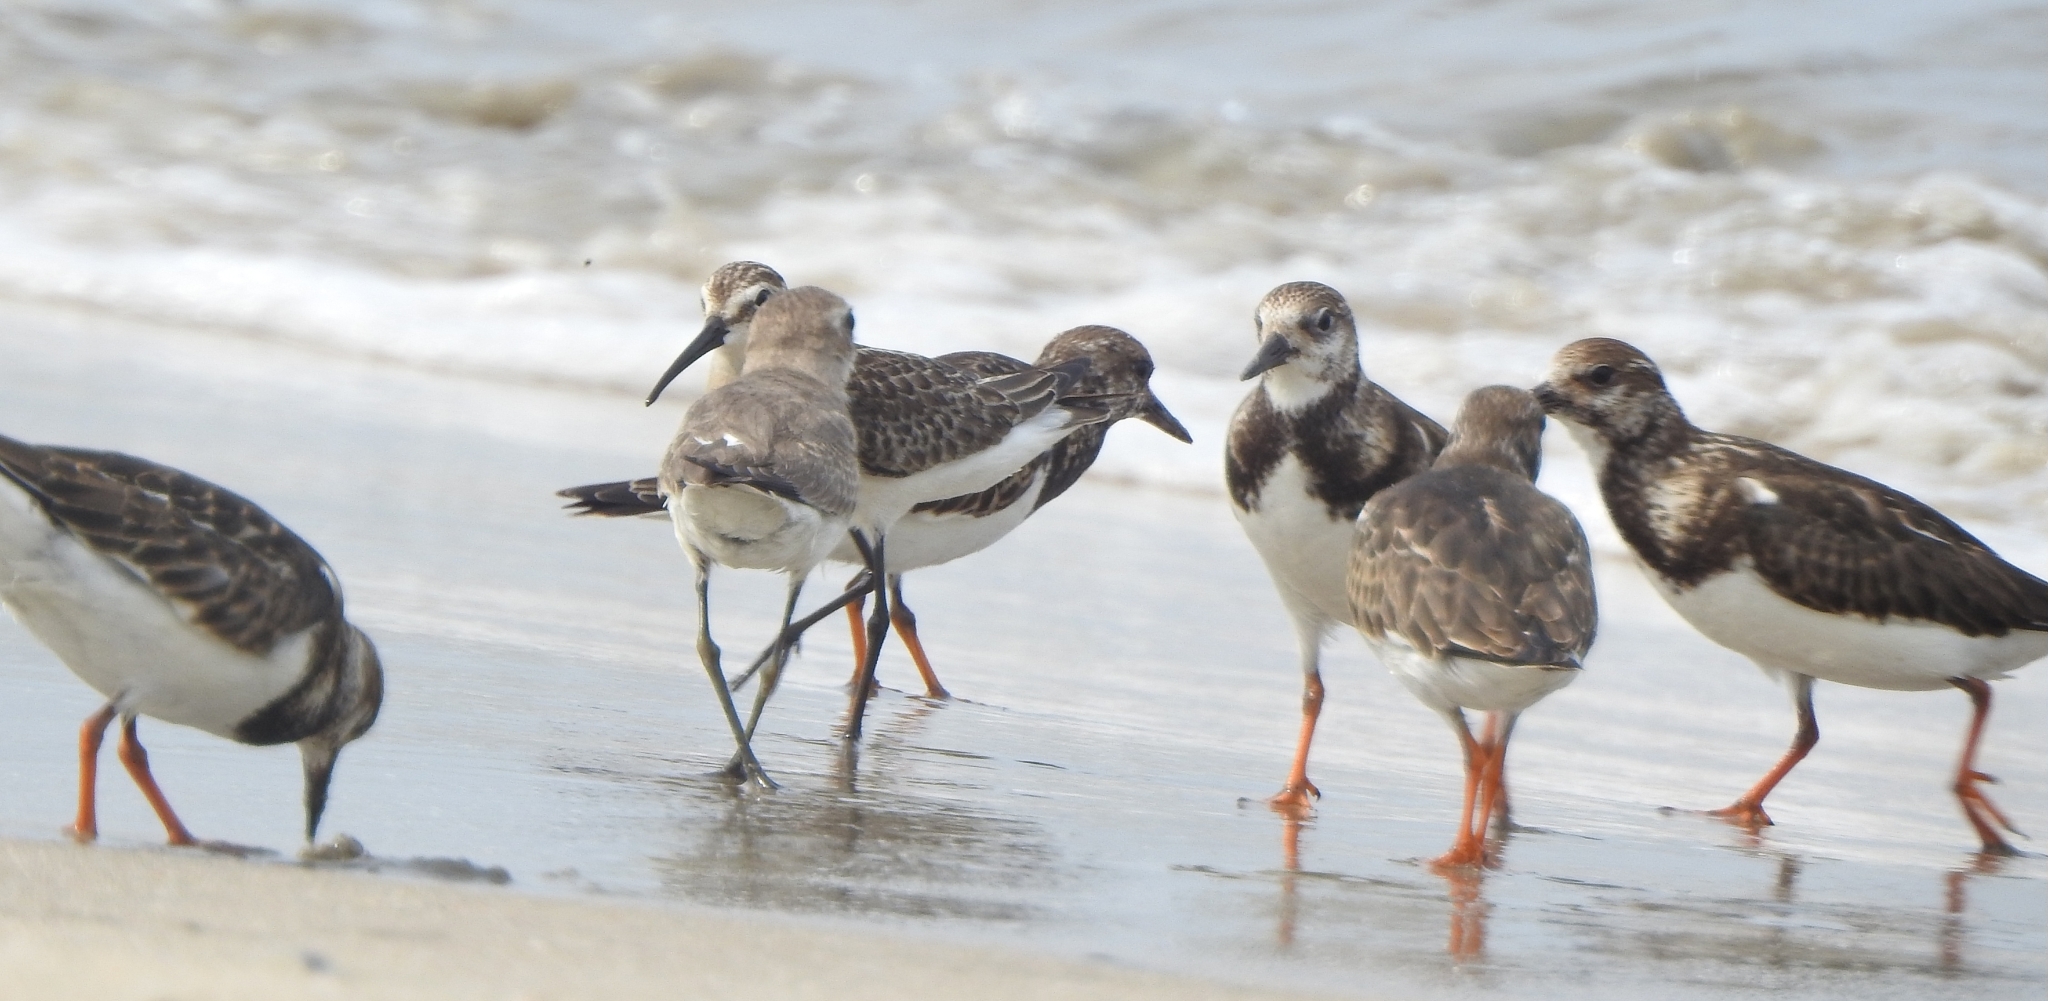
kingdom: Animalia
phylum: Chordata
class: Aves
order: Charadriiformes
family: Scolopacidae
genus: Arenaria
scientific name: Arenaria interpres
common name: Ruddy turnstone
